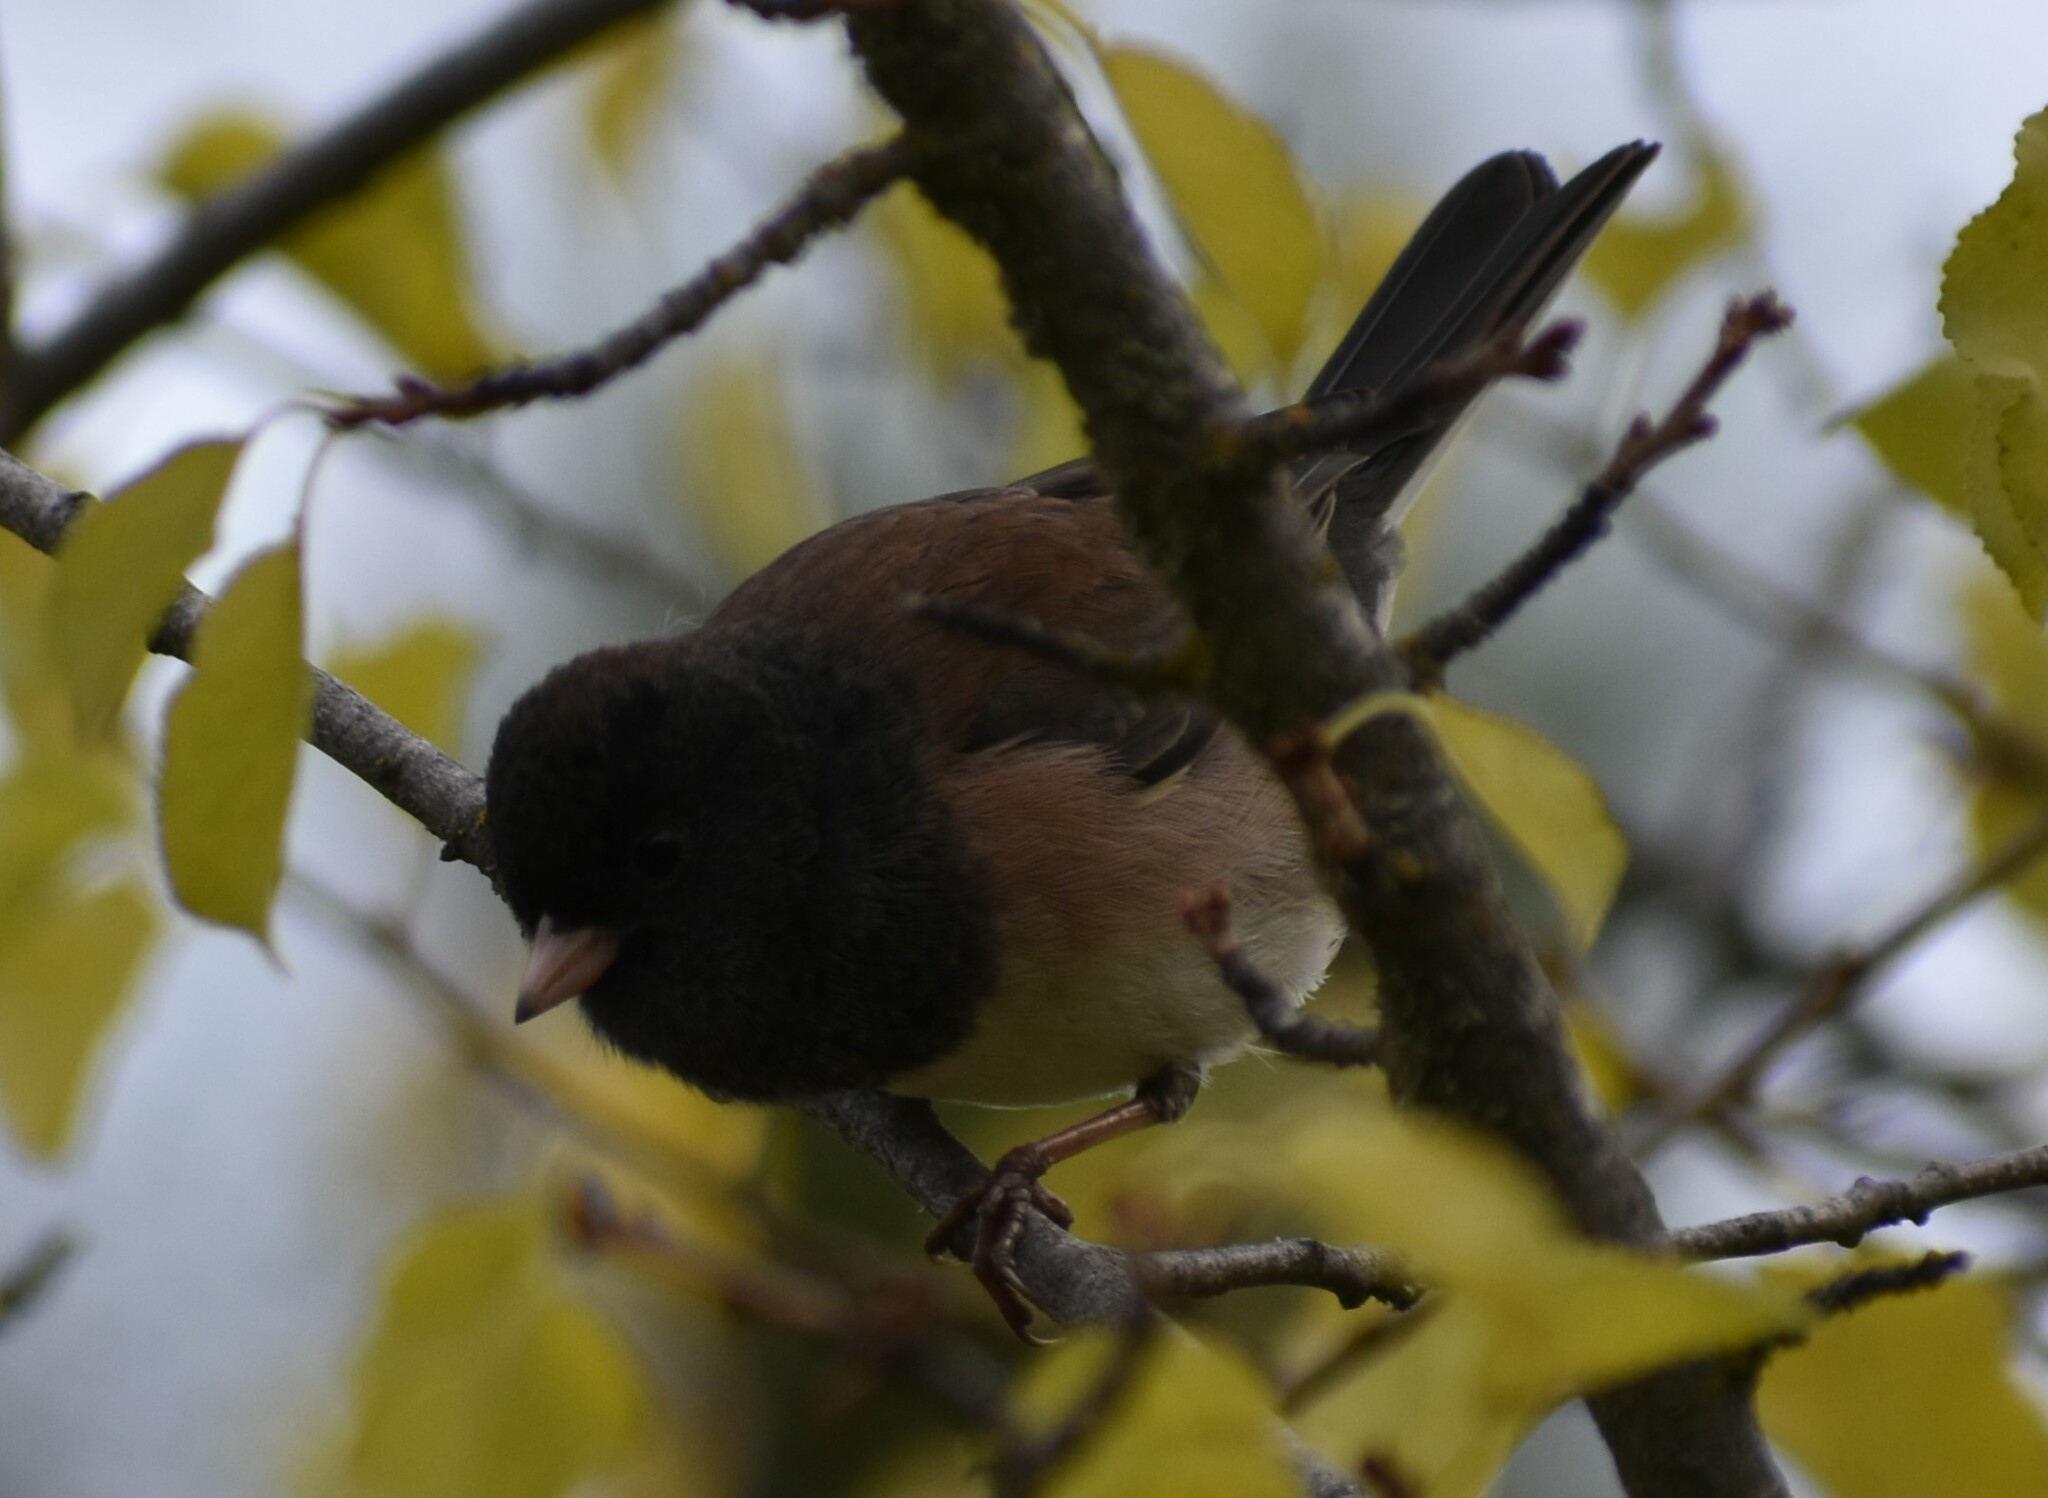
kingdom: Animalia
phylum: Chordata
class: Aves
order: Passeriformes
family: Passerellidae
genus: Junco
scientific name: Junco hyemalis
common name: Dark-eyed junco
